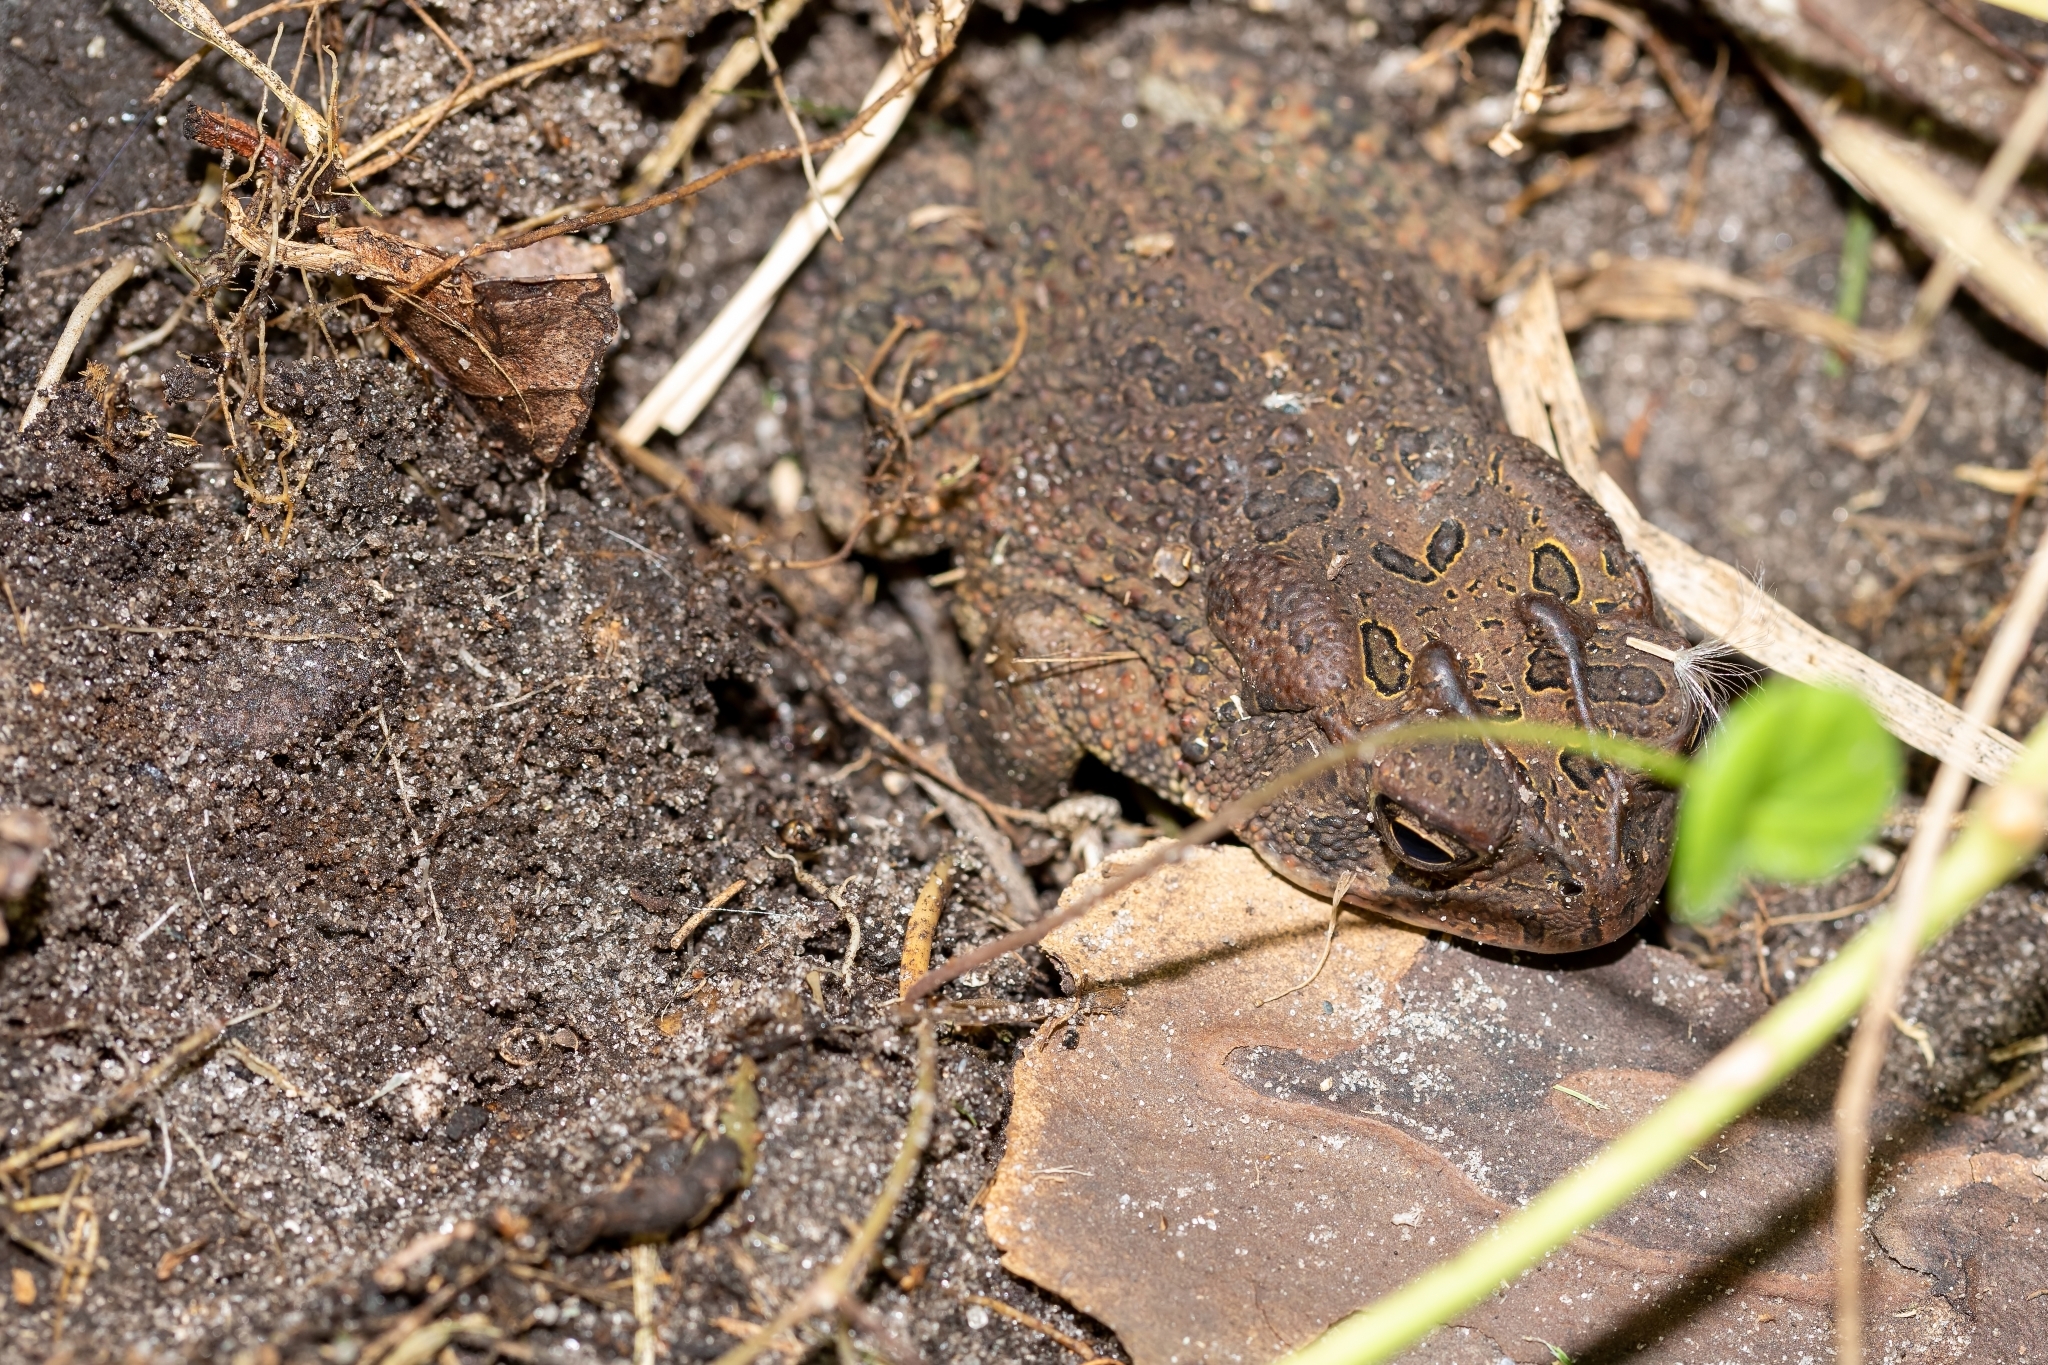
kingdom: Animalia
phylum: Chordata
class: Amphibia
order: Anura
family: Bufonidae
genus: Anaxyrus
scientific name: Anaxyrus terrestris
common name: Southern toad
